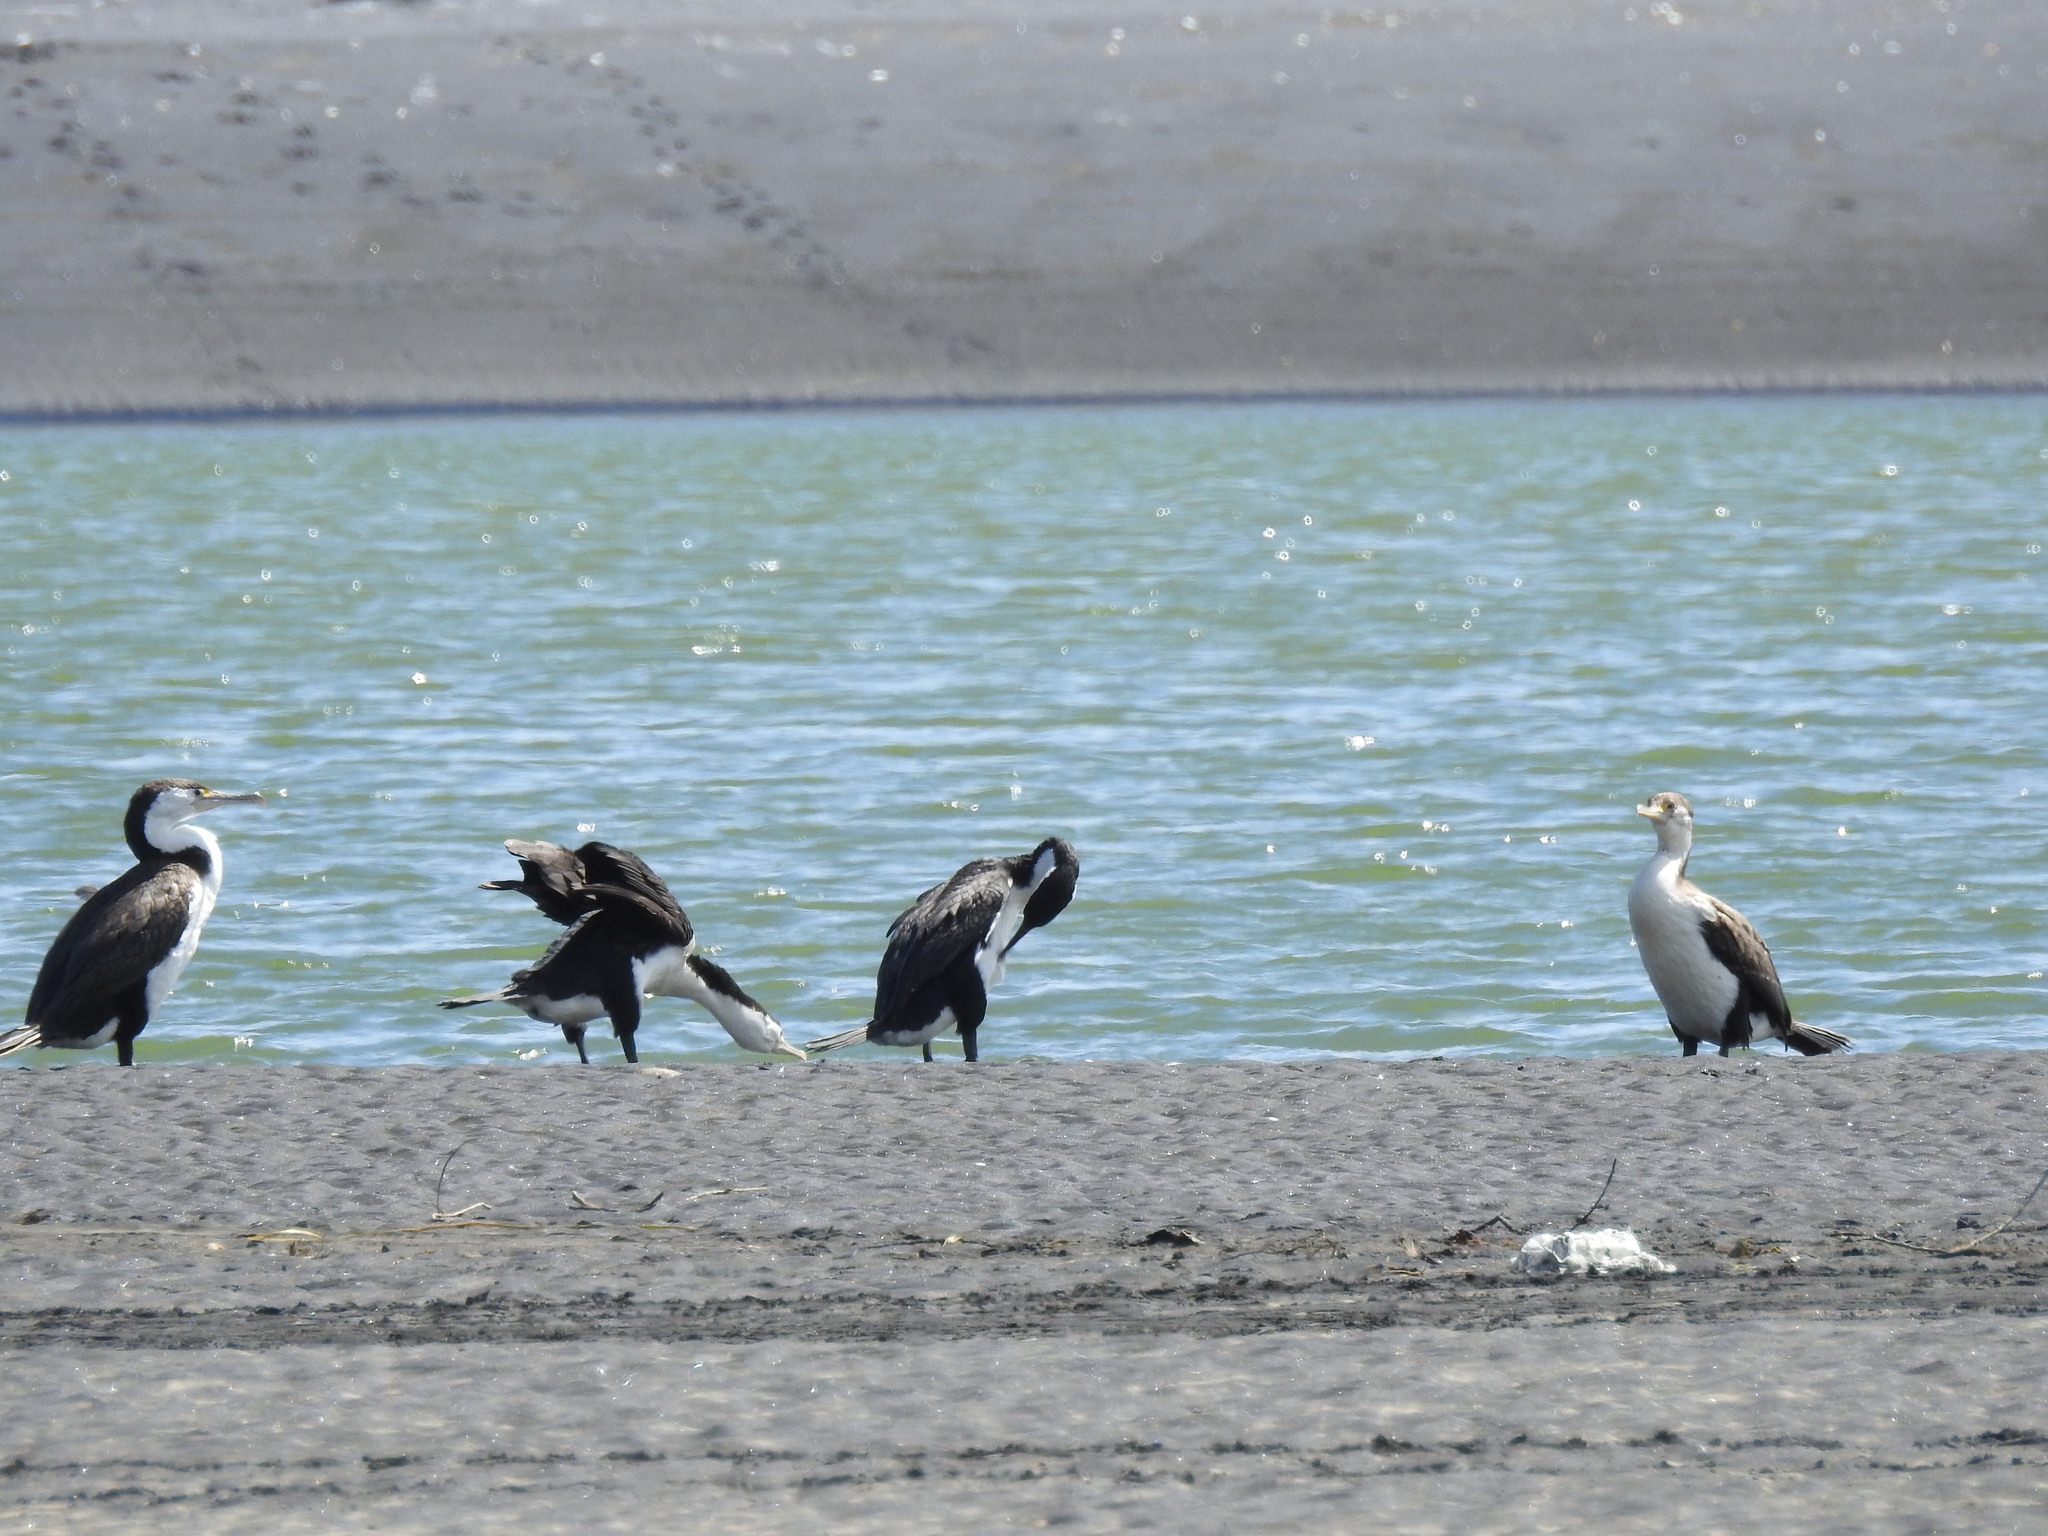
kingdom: Animalia
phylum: Chordata
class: Aves
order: Suliformes
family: Phalacrocoracidae
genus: Phalacrocorax
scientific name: Phalacrocorax varius
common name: Pied cormorant
